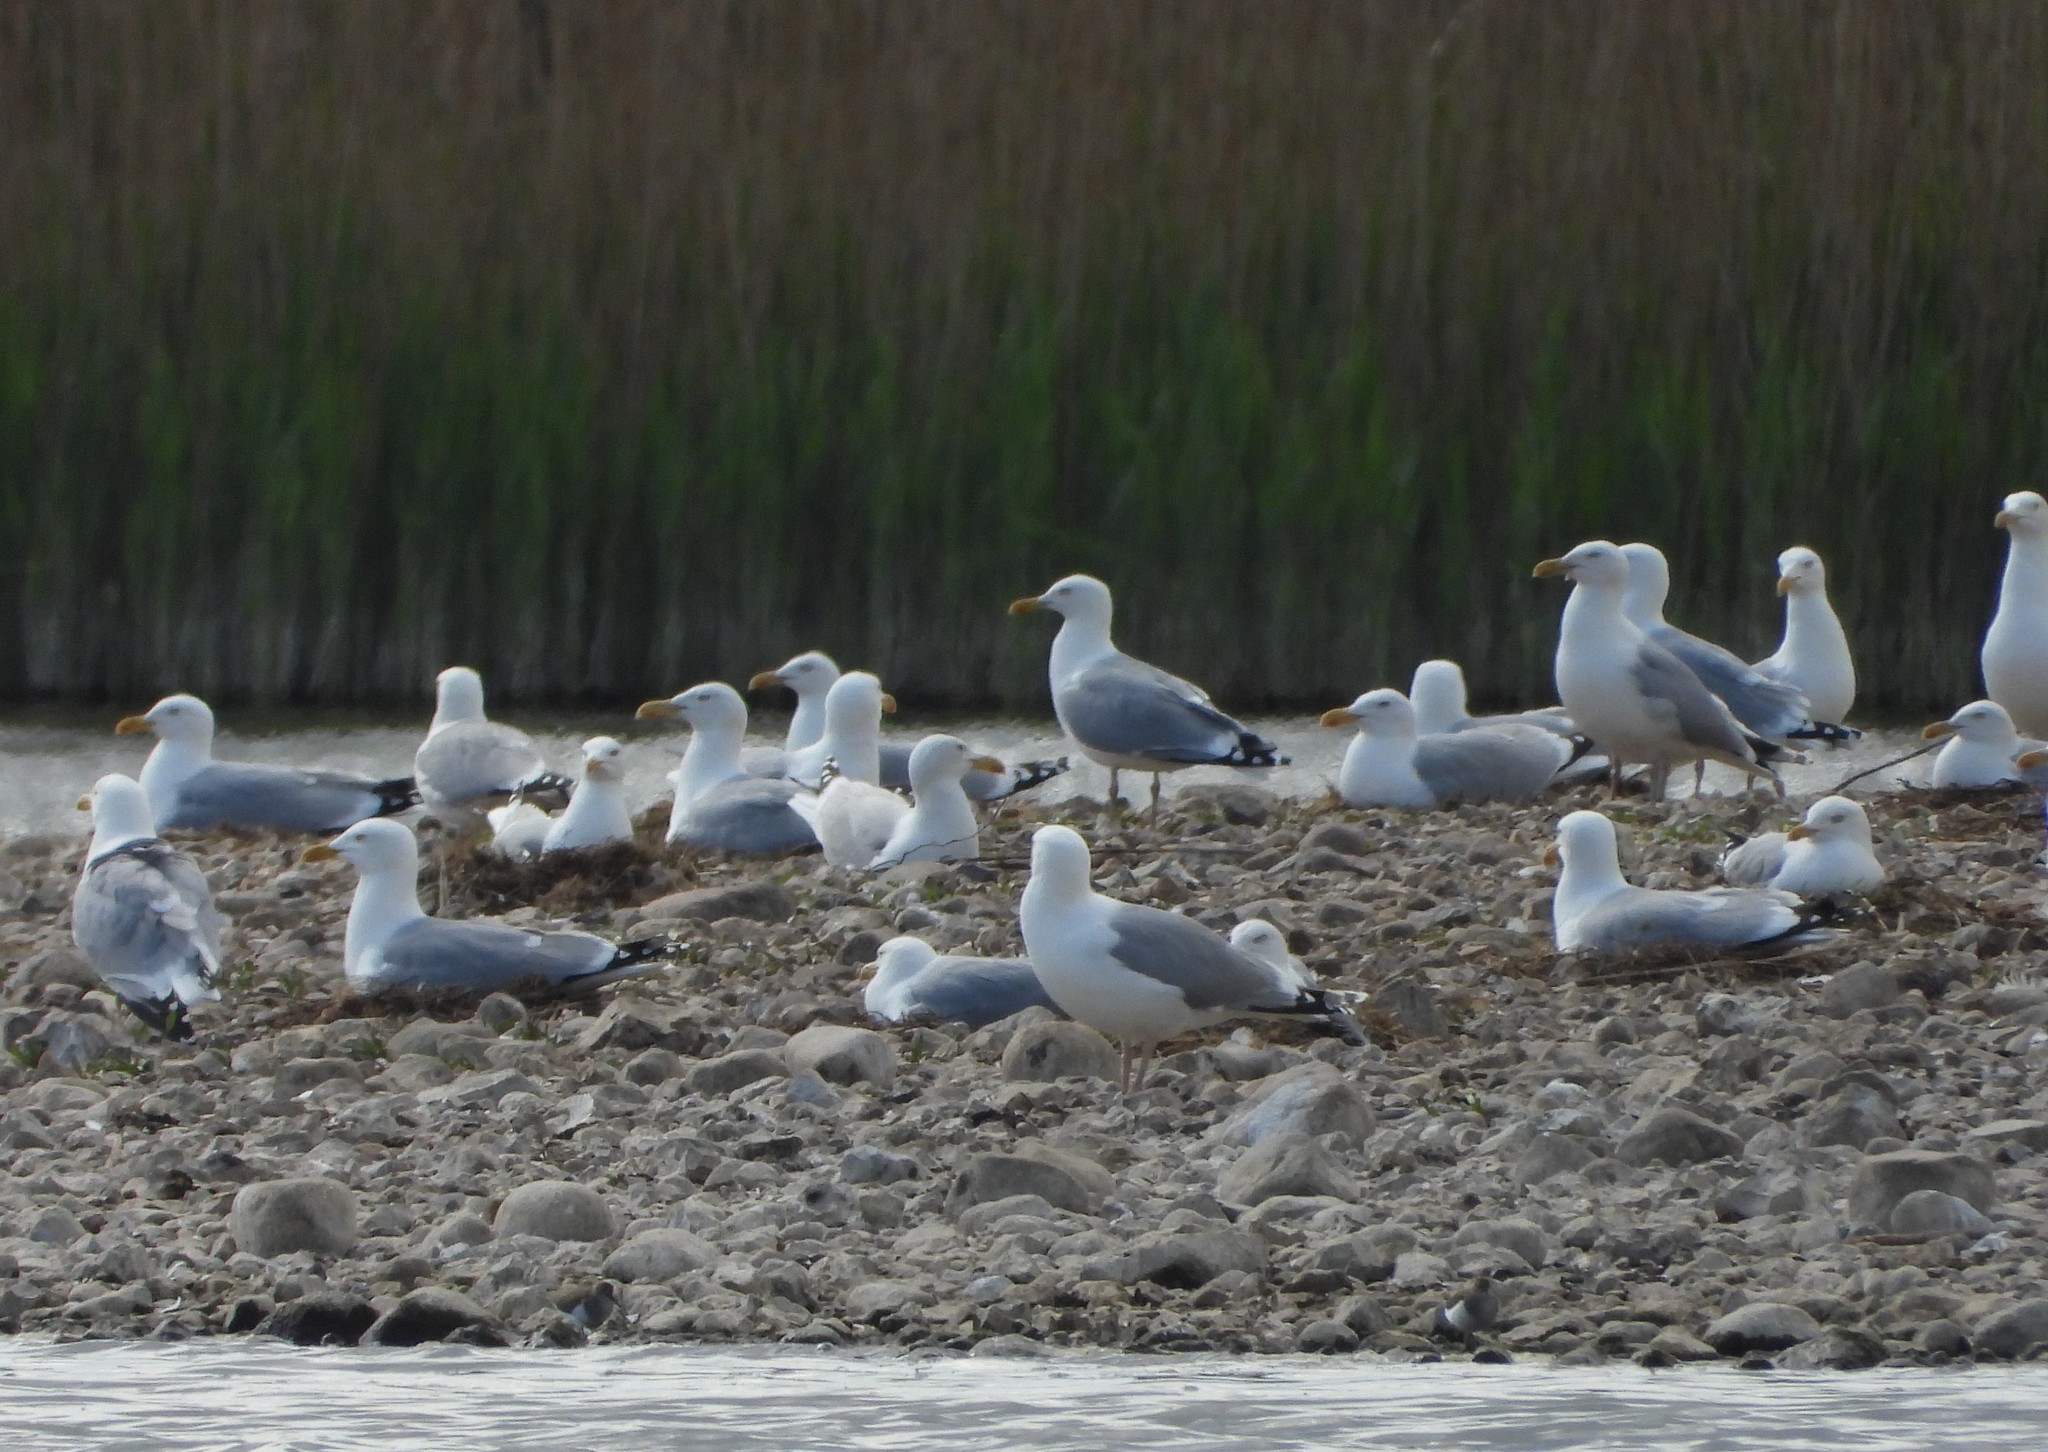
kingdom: Animalia
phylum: Chordata
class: Aves
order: Charadriiformes
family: Laridae
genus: Larus
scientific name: Larus argentatus
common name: Herring gull
